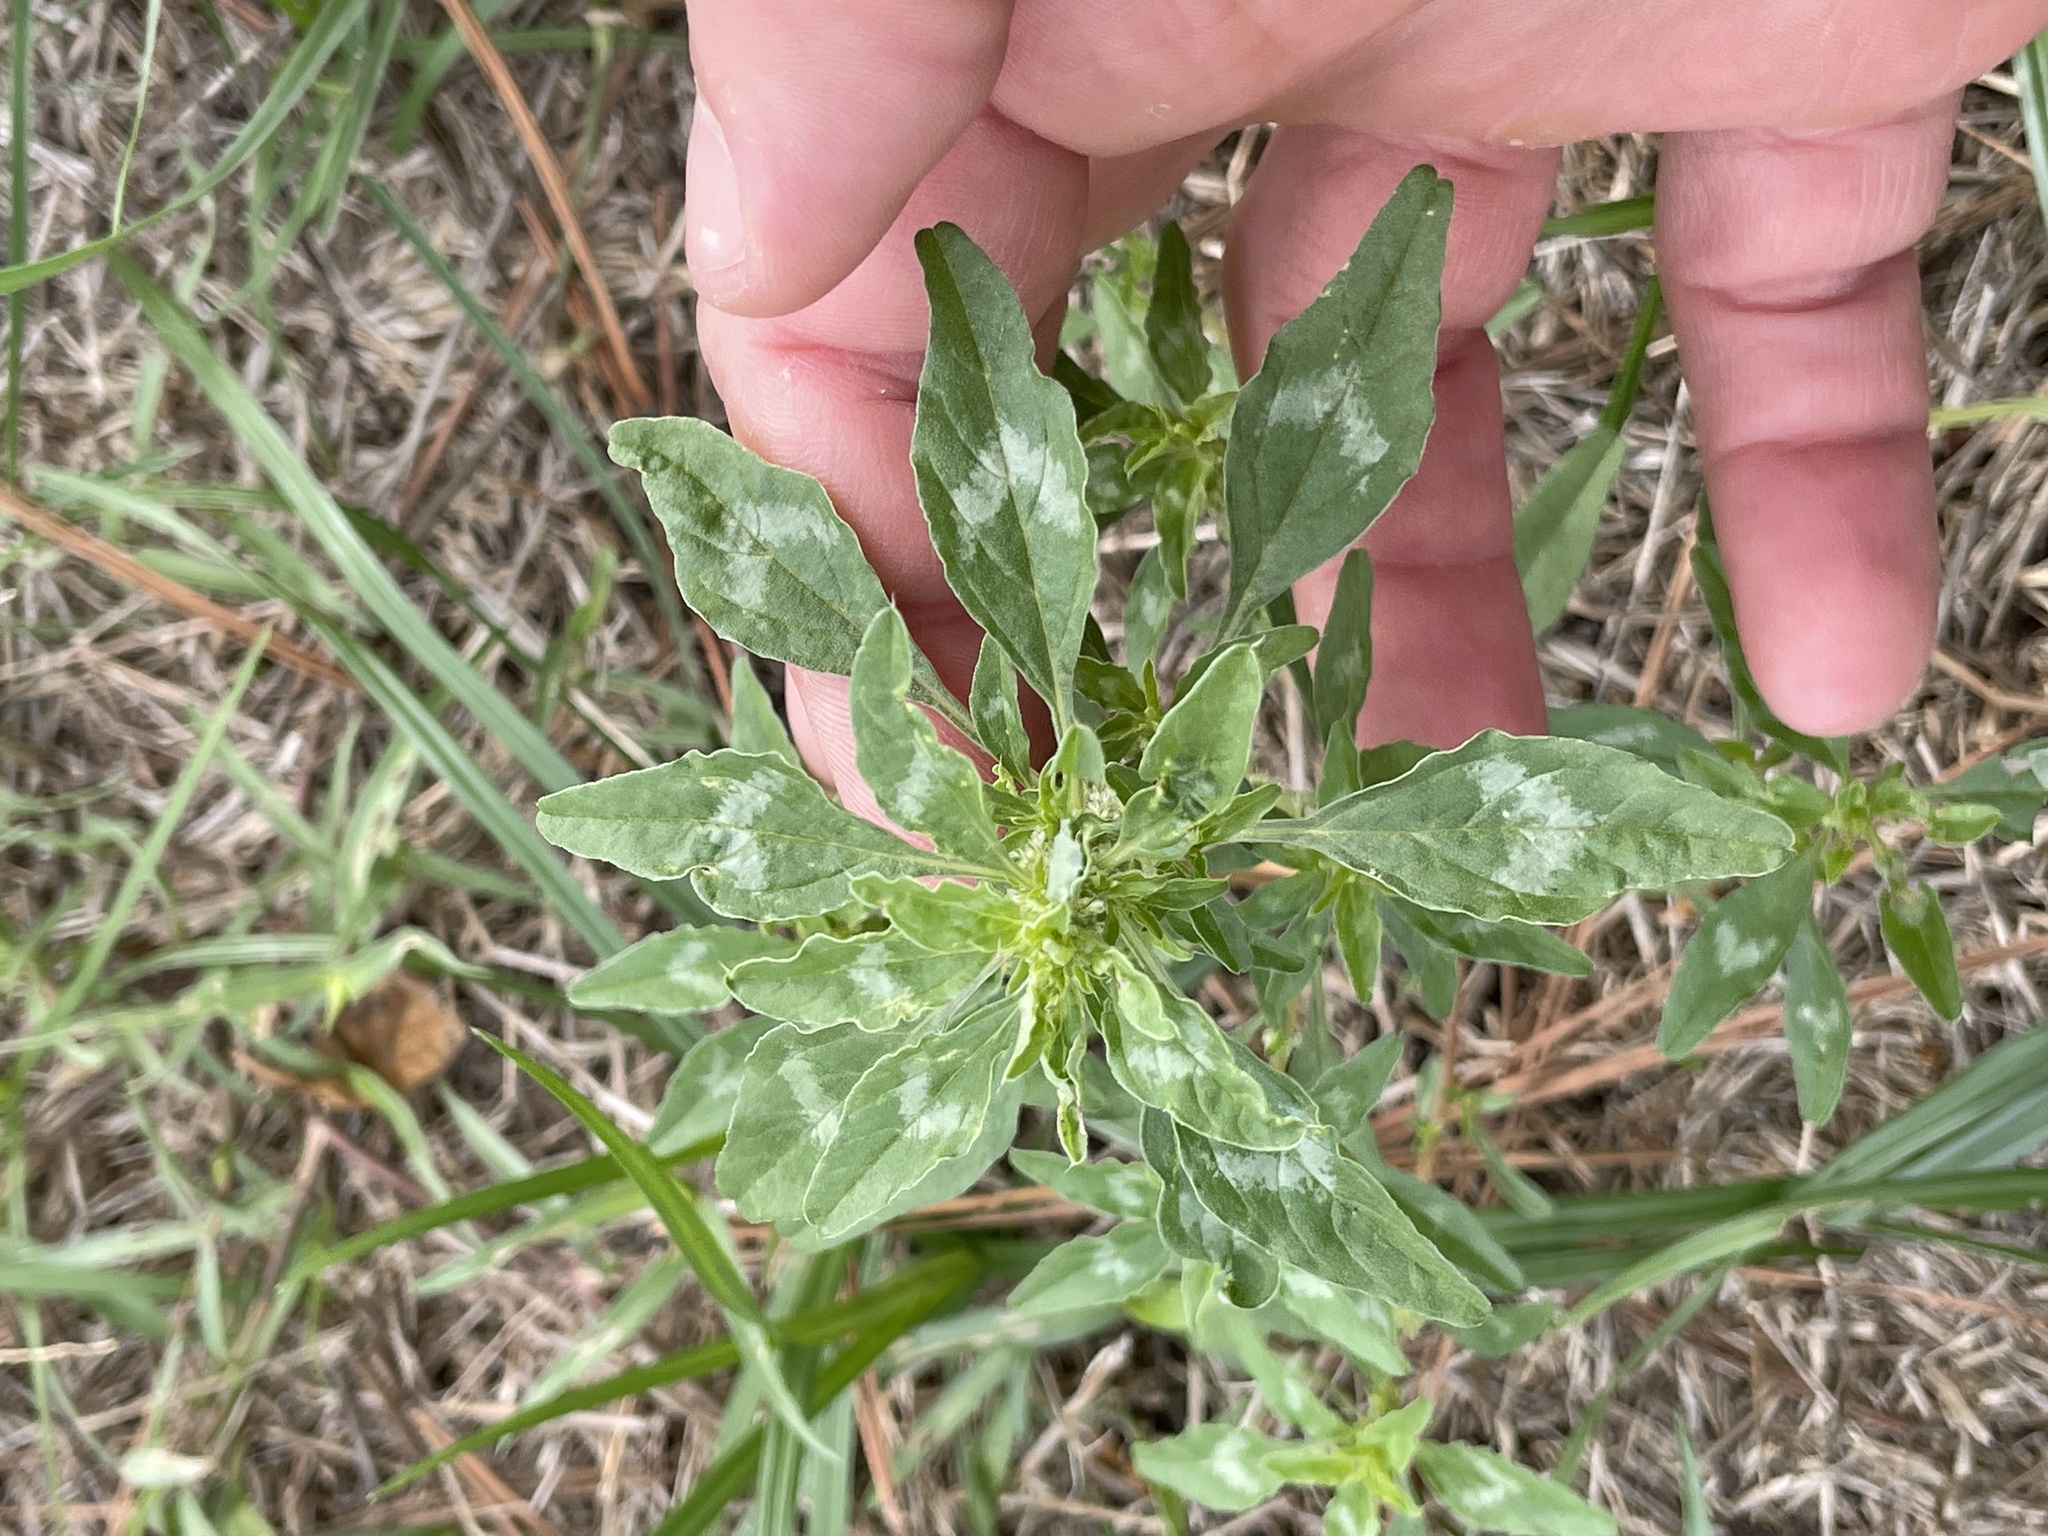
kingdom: Plantae
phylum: Tracheophyta
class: Magnoliopsida
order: Caryophyllales
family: Amaranthaceae
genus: Amaranthus
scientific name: Amaranthus polygonoides
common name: Tropical amaranth
